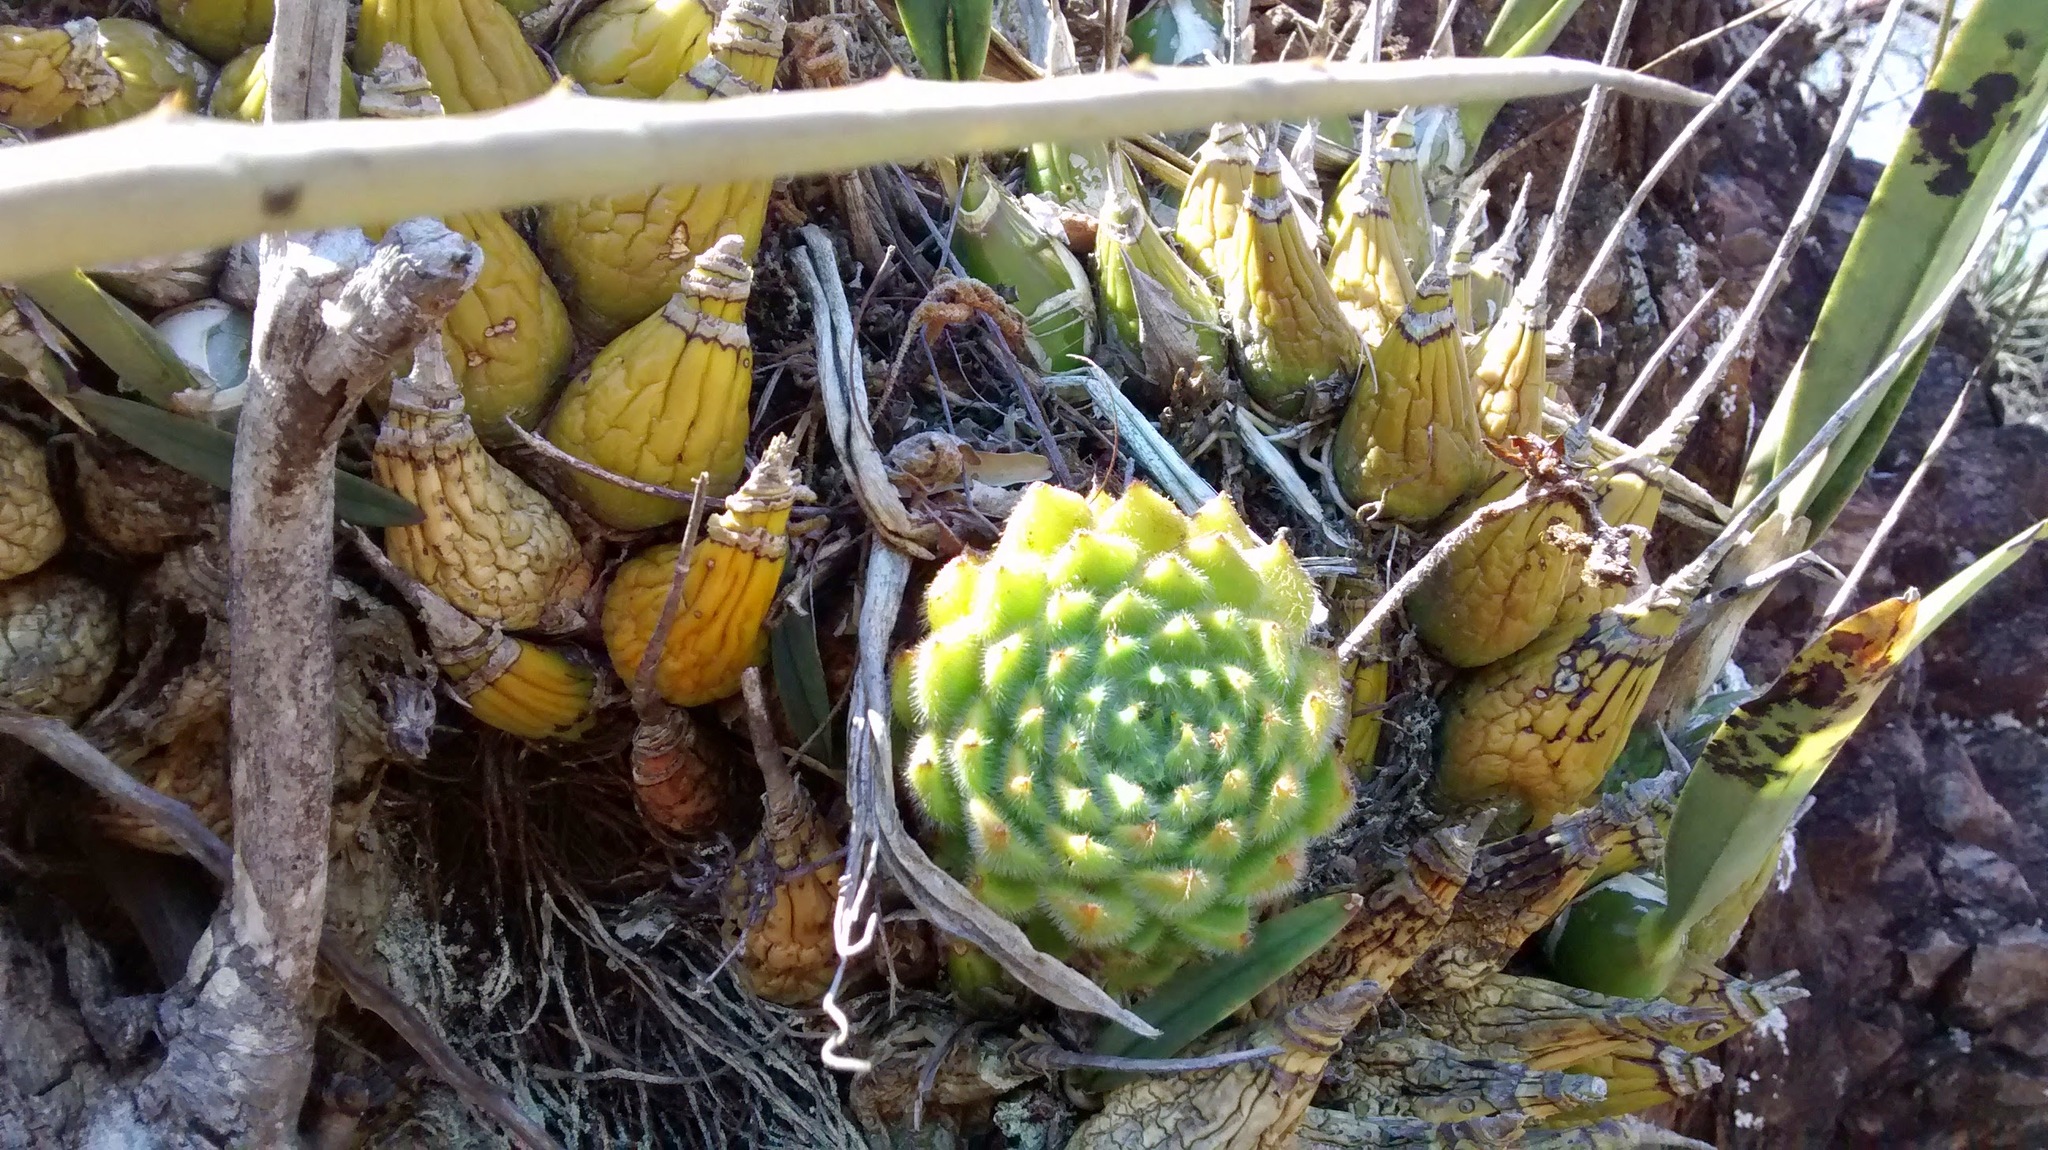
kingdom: Plantae
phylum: Tracheophyta
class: Magnoliopsida
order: Saxifragales
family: Crassulaceae
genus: Echeveria
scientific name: Echeveria setosa
